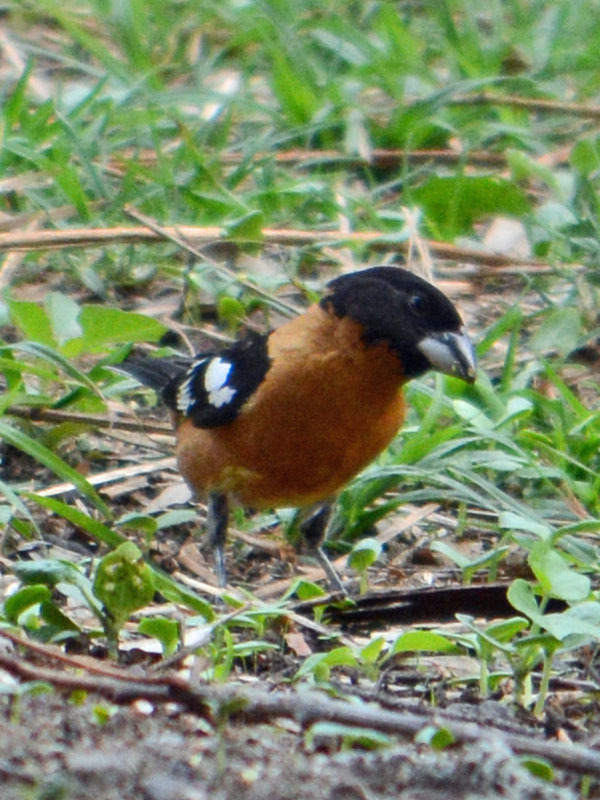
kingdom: Animalia
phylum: Chordata
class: Aves
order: Passeriformes
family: Cardinalidae
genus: Pheucticus
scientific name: Pheucticus melanocephalus
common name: Black-headed grosbeak
